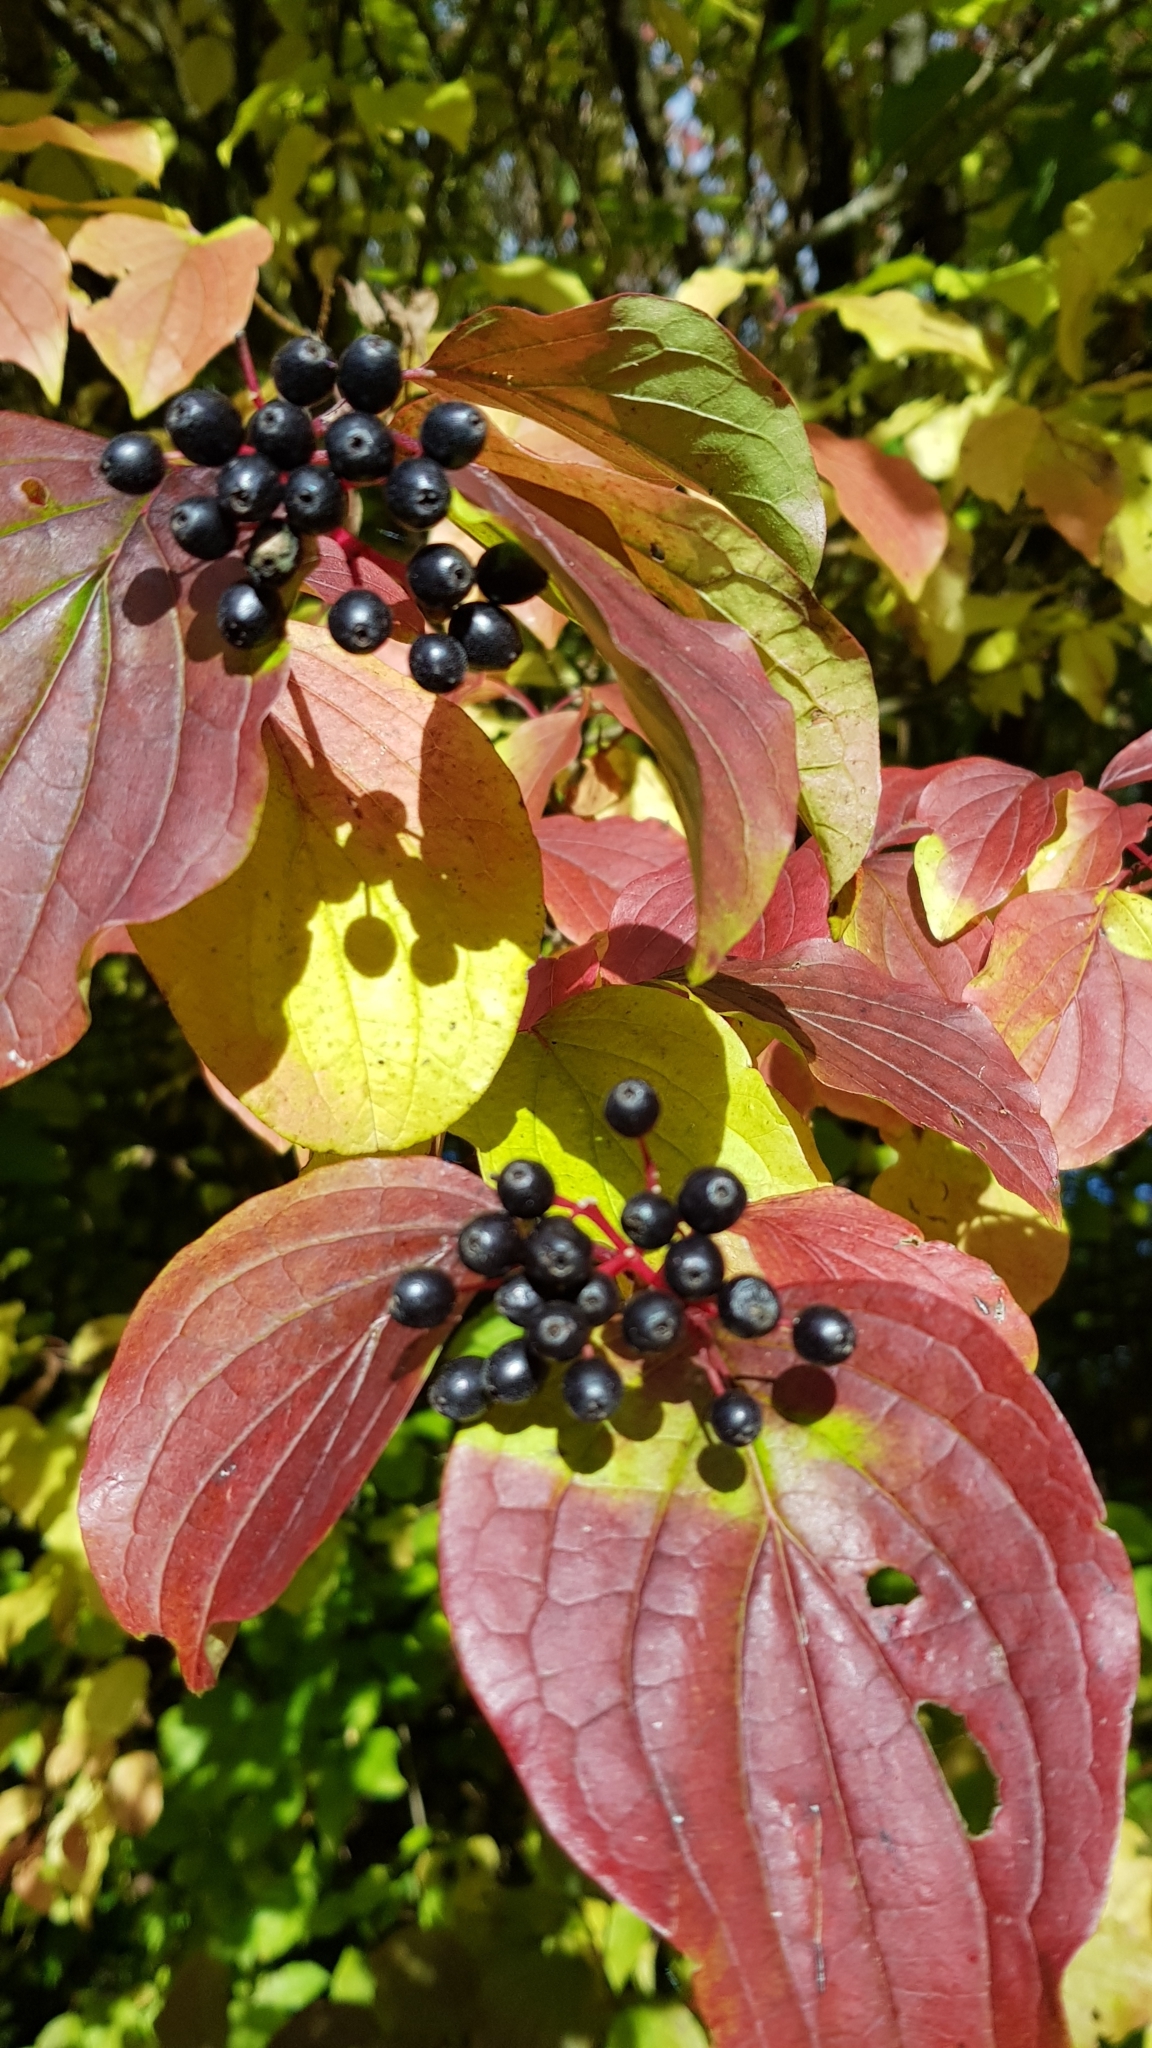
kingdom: Plantae
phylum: Tracheophyta
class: Magnoliopsida
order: Cornales
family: Cornaceae
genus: Cornus
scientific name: Cornus sanguinea
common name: Dogwood
